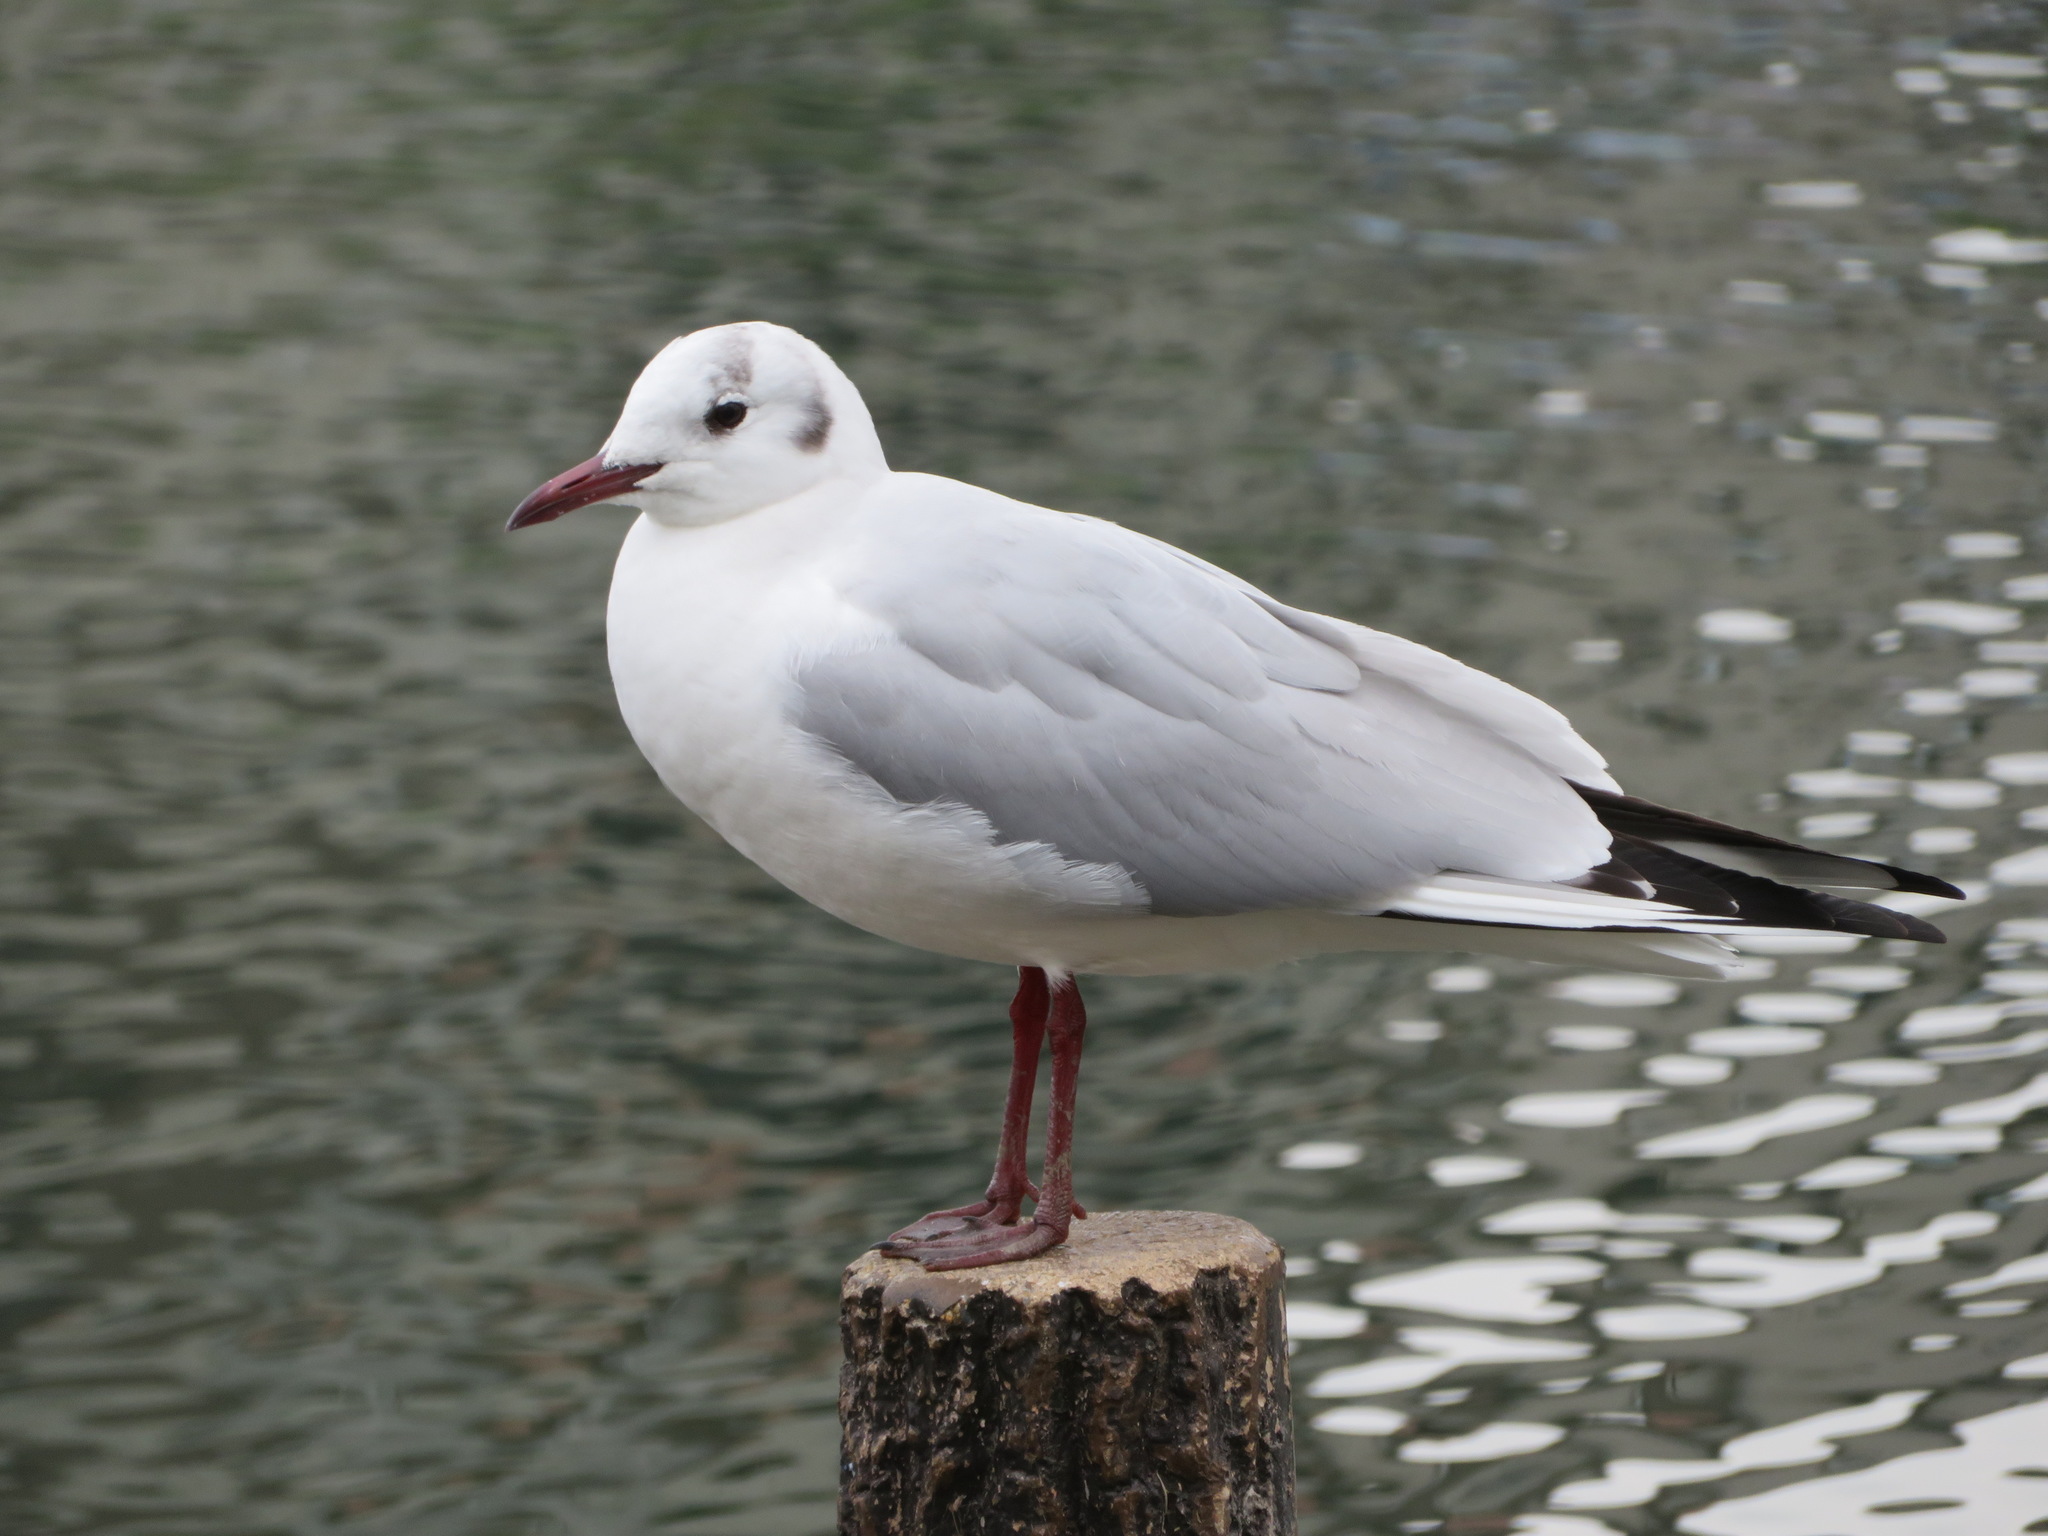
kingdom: Animalia
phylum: Chordata
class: Aves
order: Charadriiformes
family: Laridae
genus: Chroicocephalus
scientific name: Chroicocephalus ridibundus
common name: Black-headed gull
